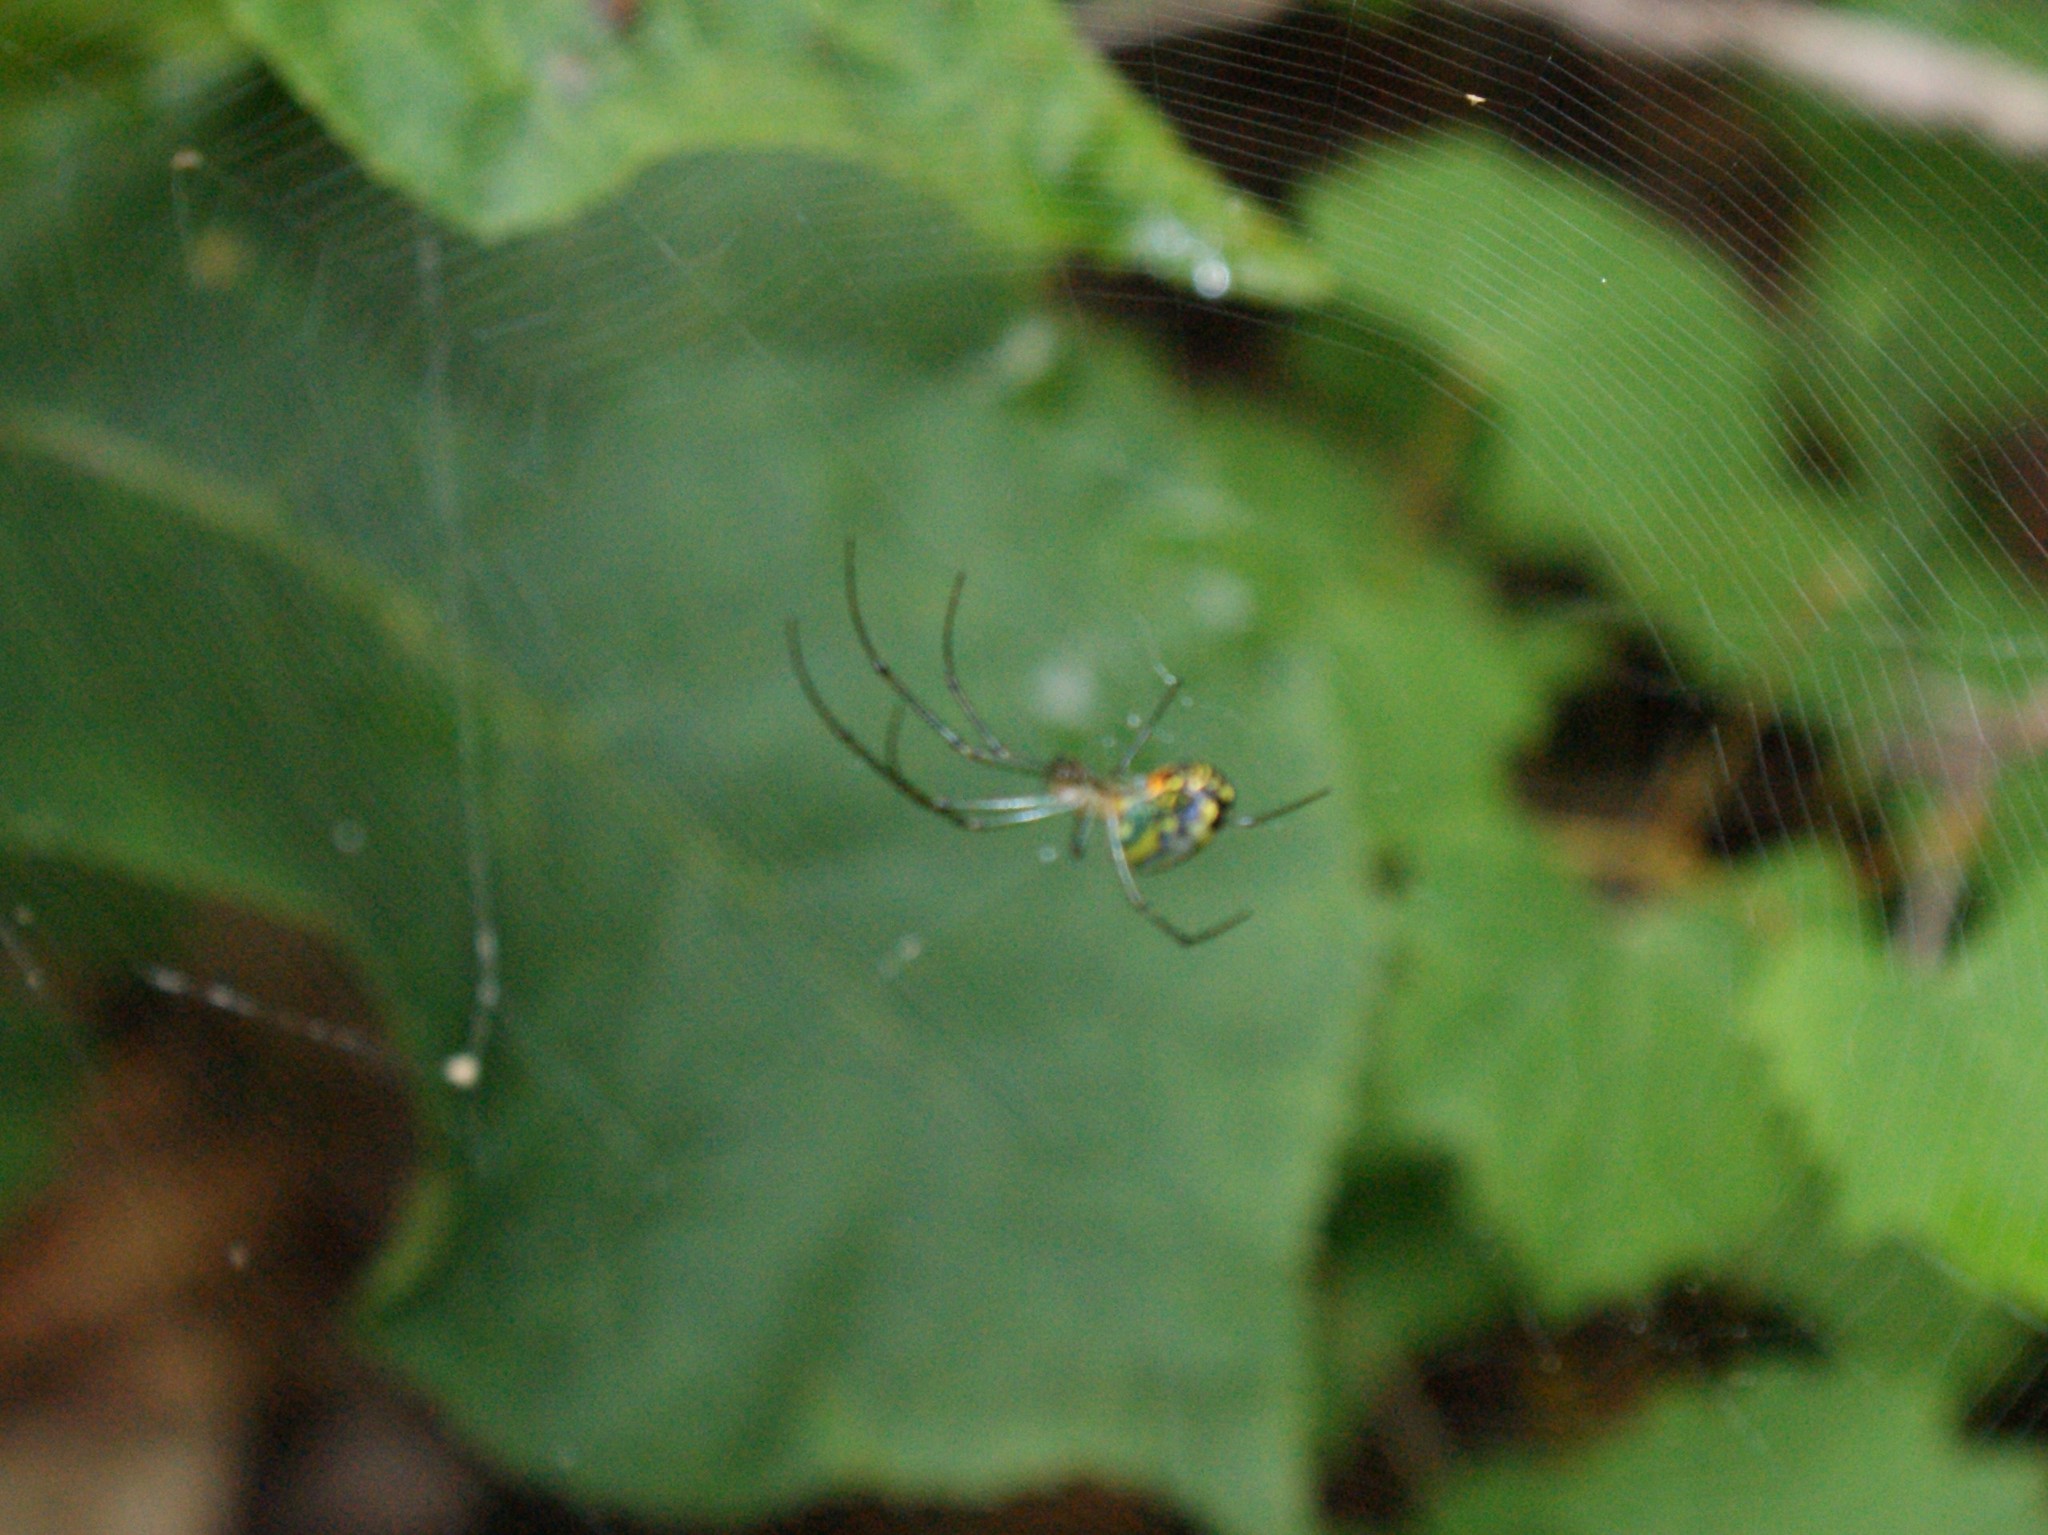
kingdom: Animalia
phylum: Arthropoda
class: Arachnida
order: Araneae
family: Tetragnathidae
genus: Leucauge
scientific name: Leucauge venusta
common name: Longjawed orb weavers
